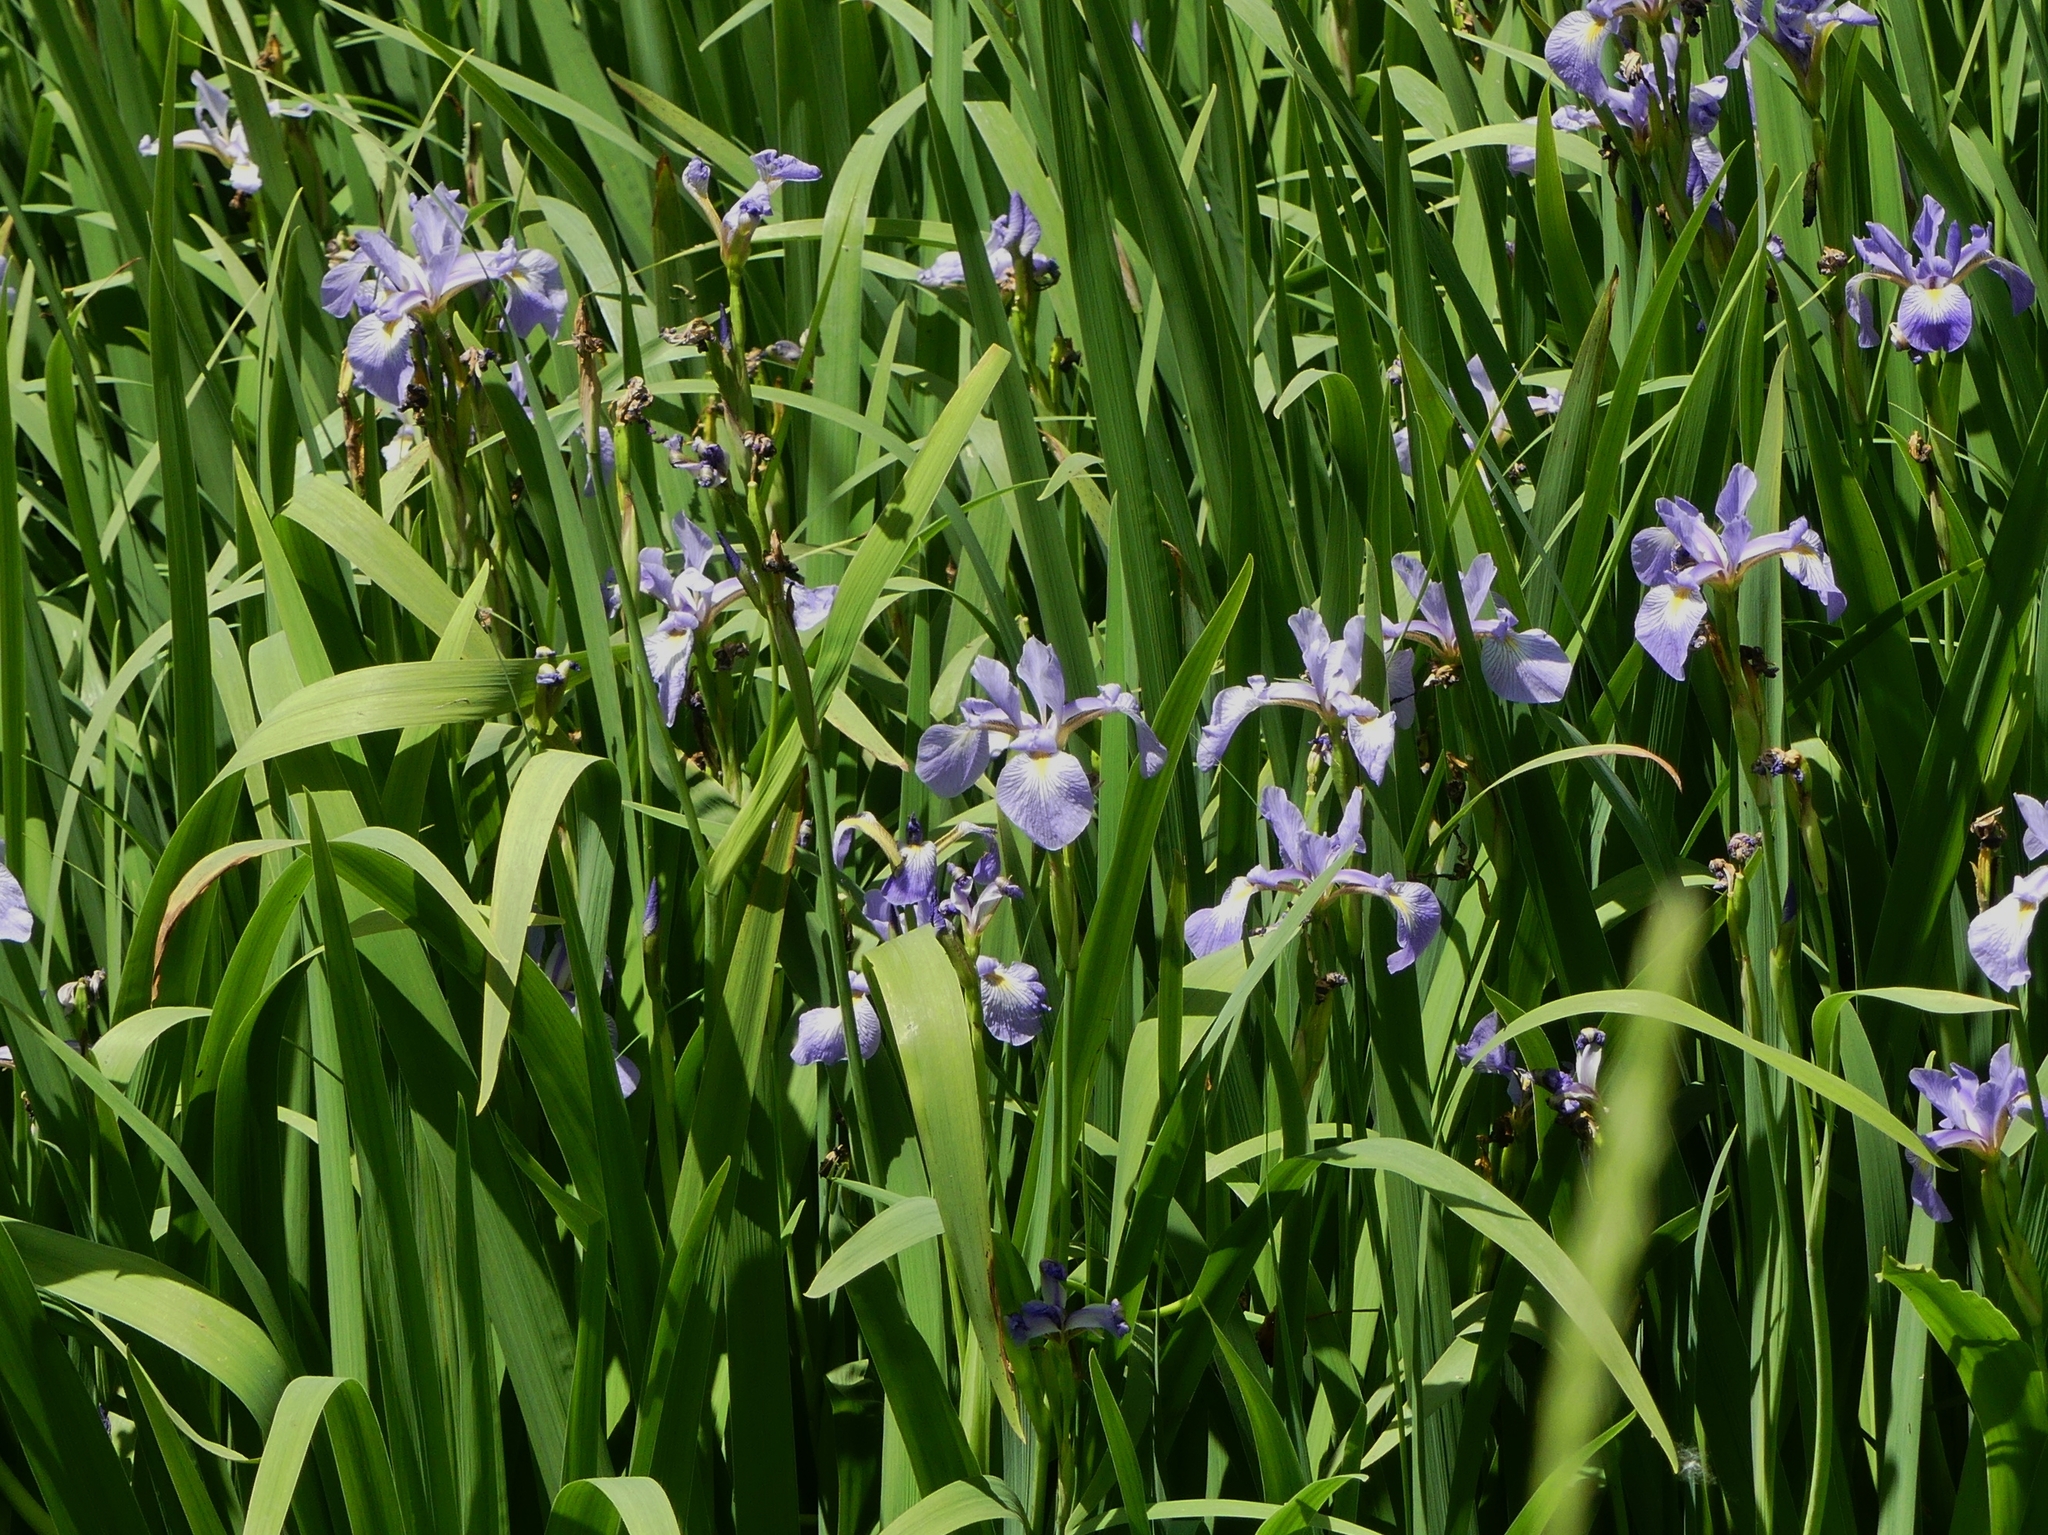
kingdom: Plantae
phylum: Tracheophyta
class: Liliopsida
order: Asparagales
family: Iridaceae
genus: Iris
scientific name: Iris virginica
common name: Southern blue flag
